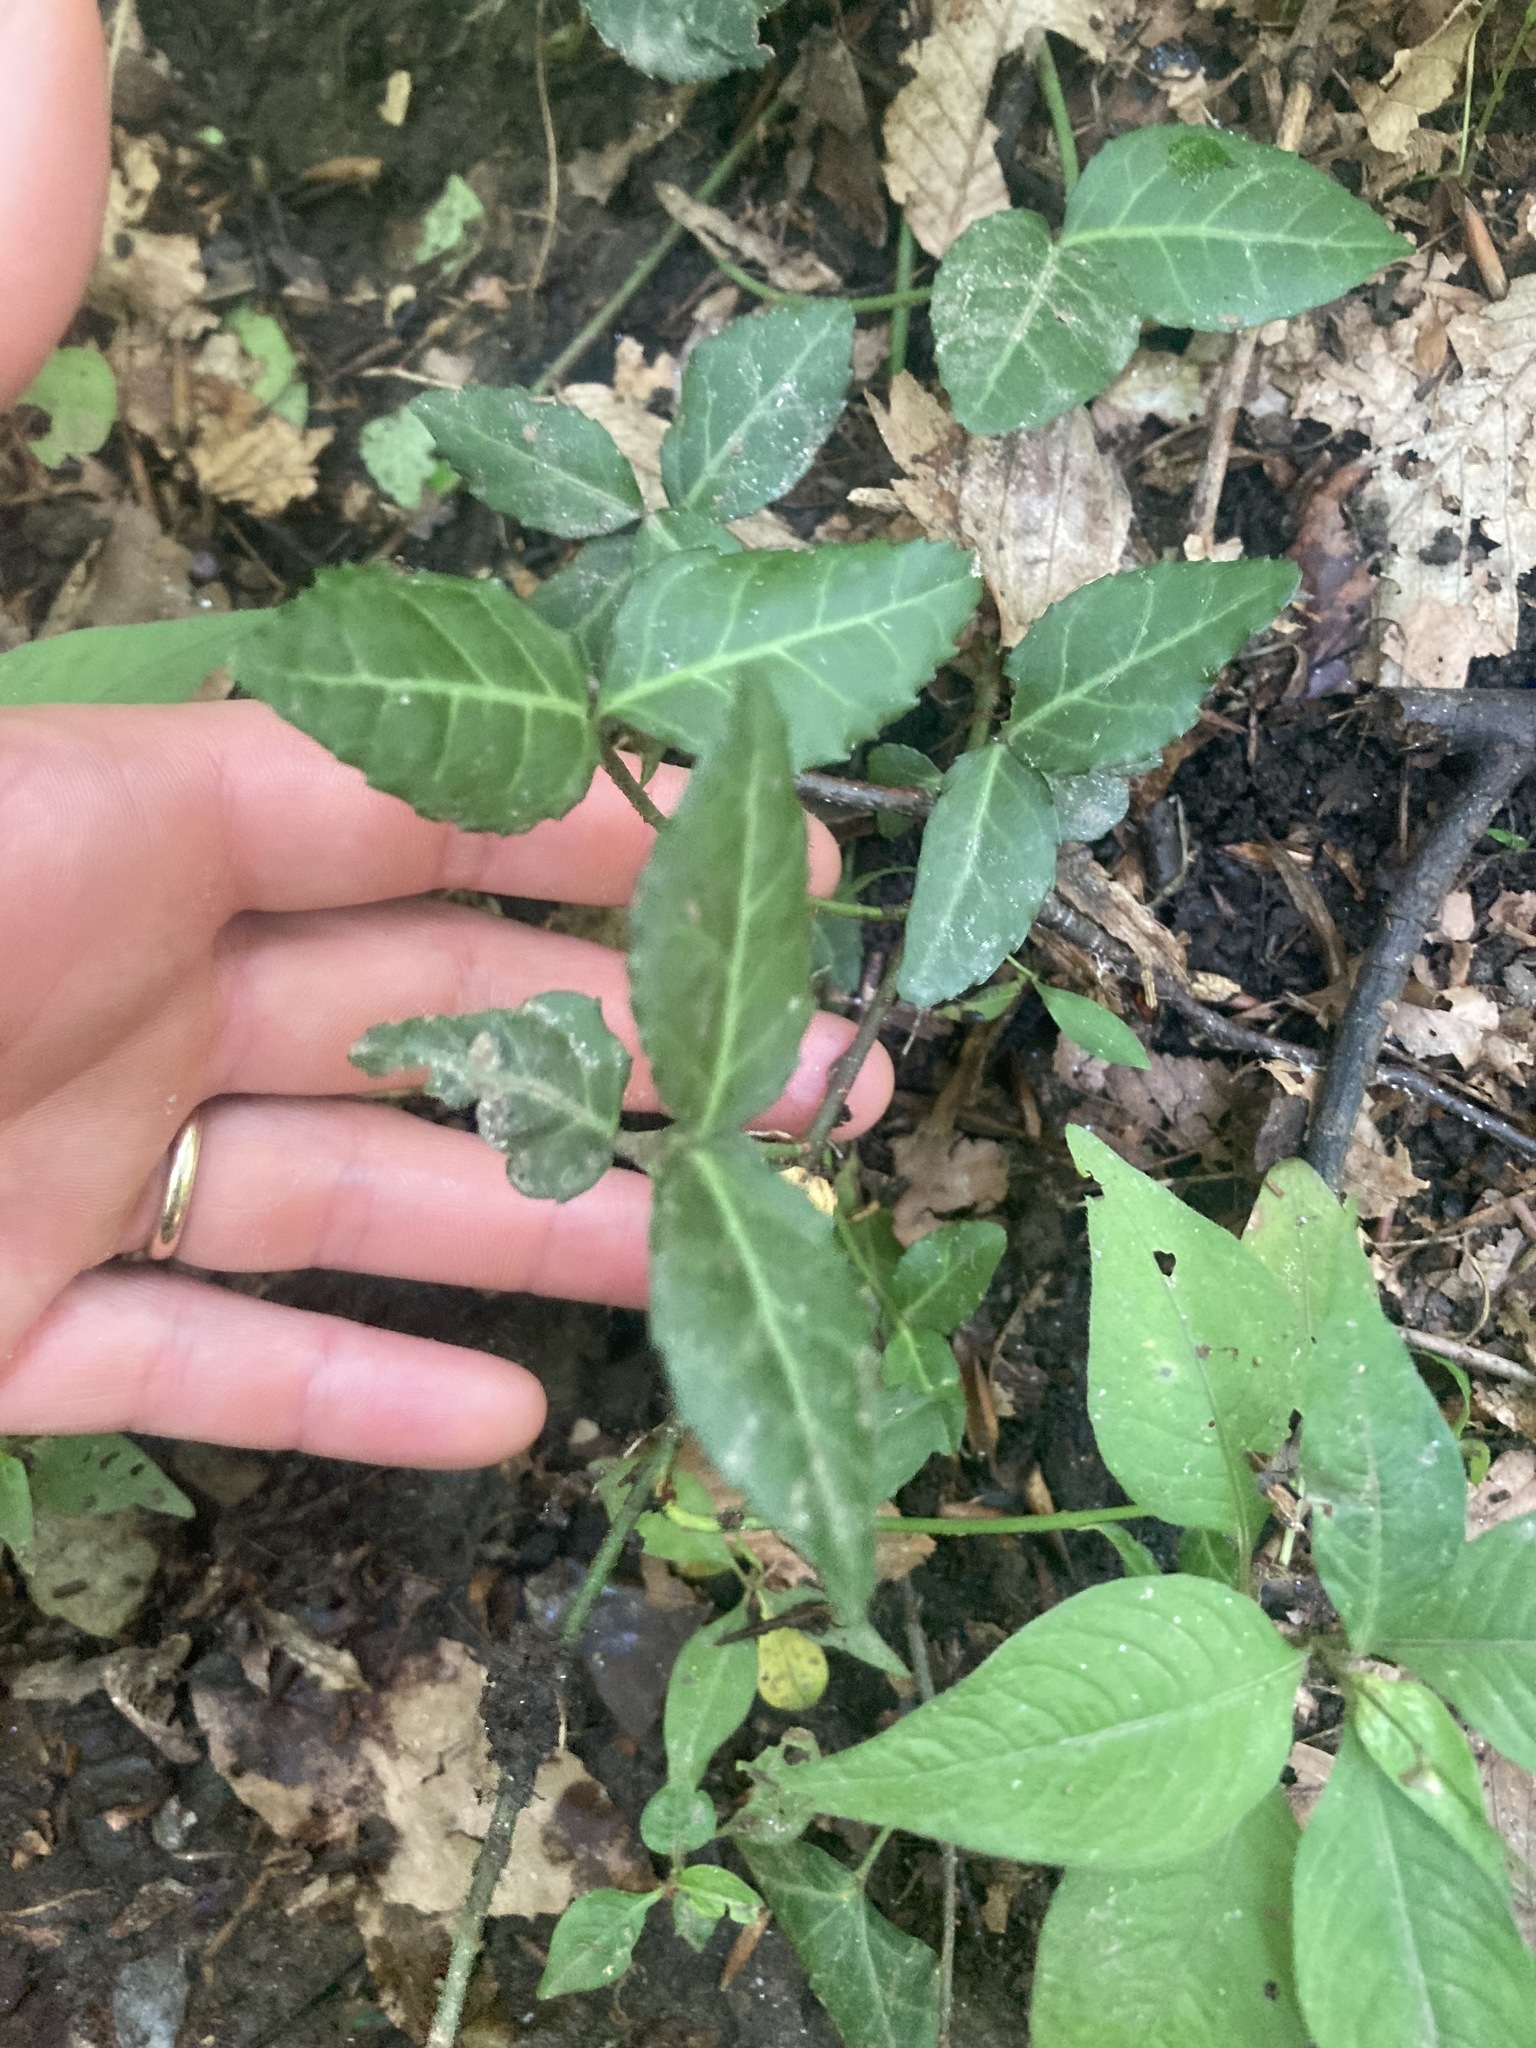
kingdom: Plantae
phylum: Tracheophyta
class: Magnoliopsida
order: Celastrales
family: Celastraceae
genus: Euonymus
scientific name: Euonymus fortunei
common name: Climbing euonymus
